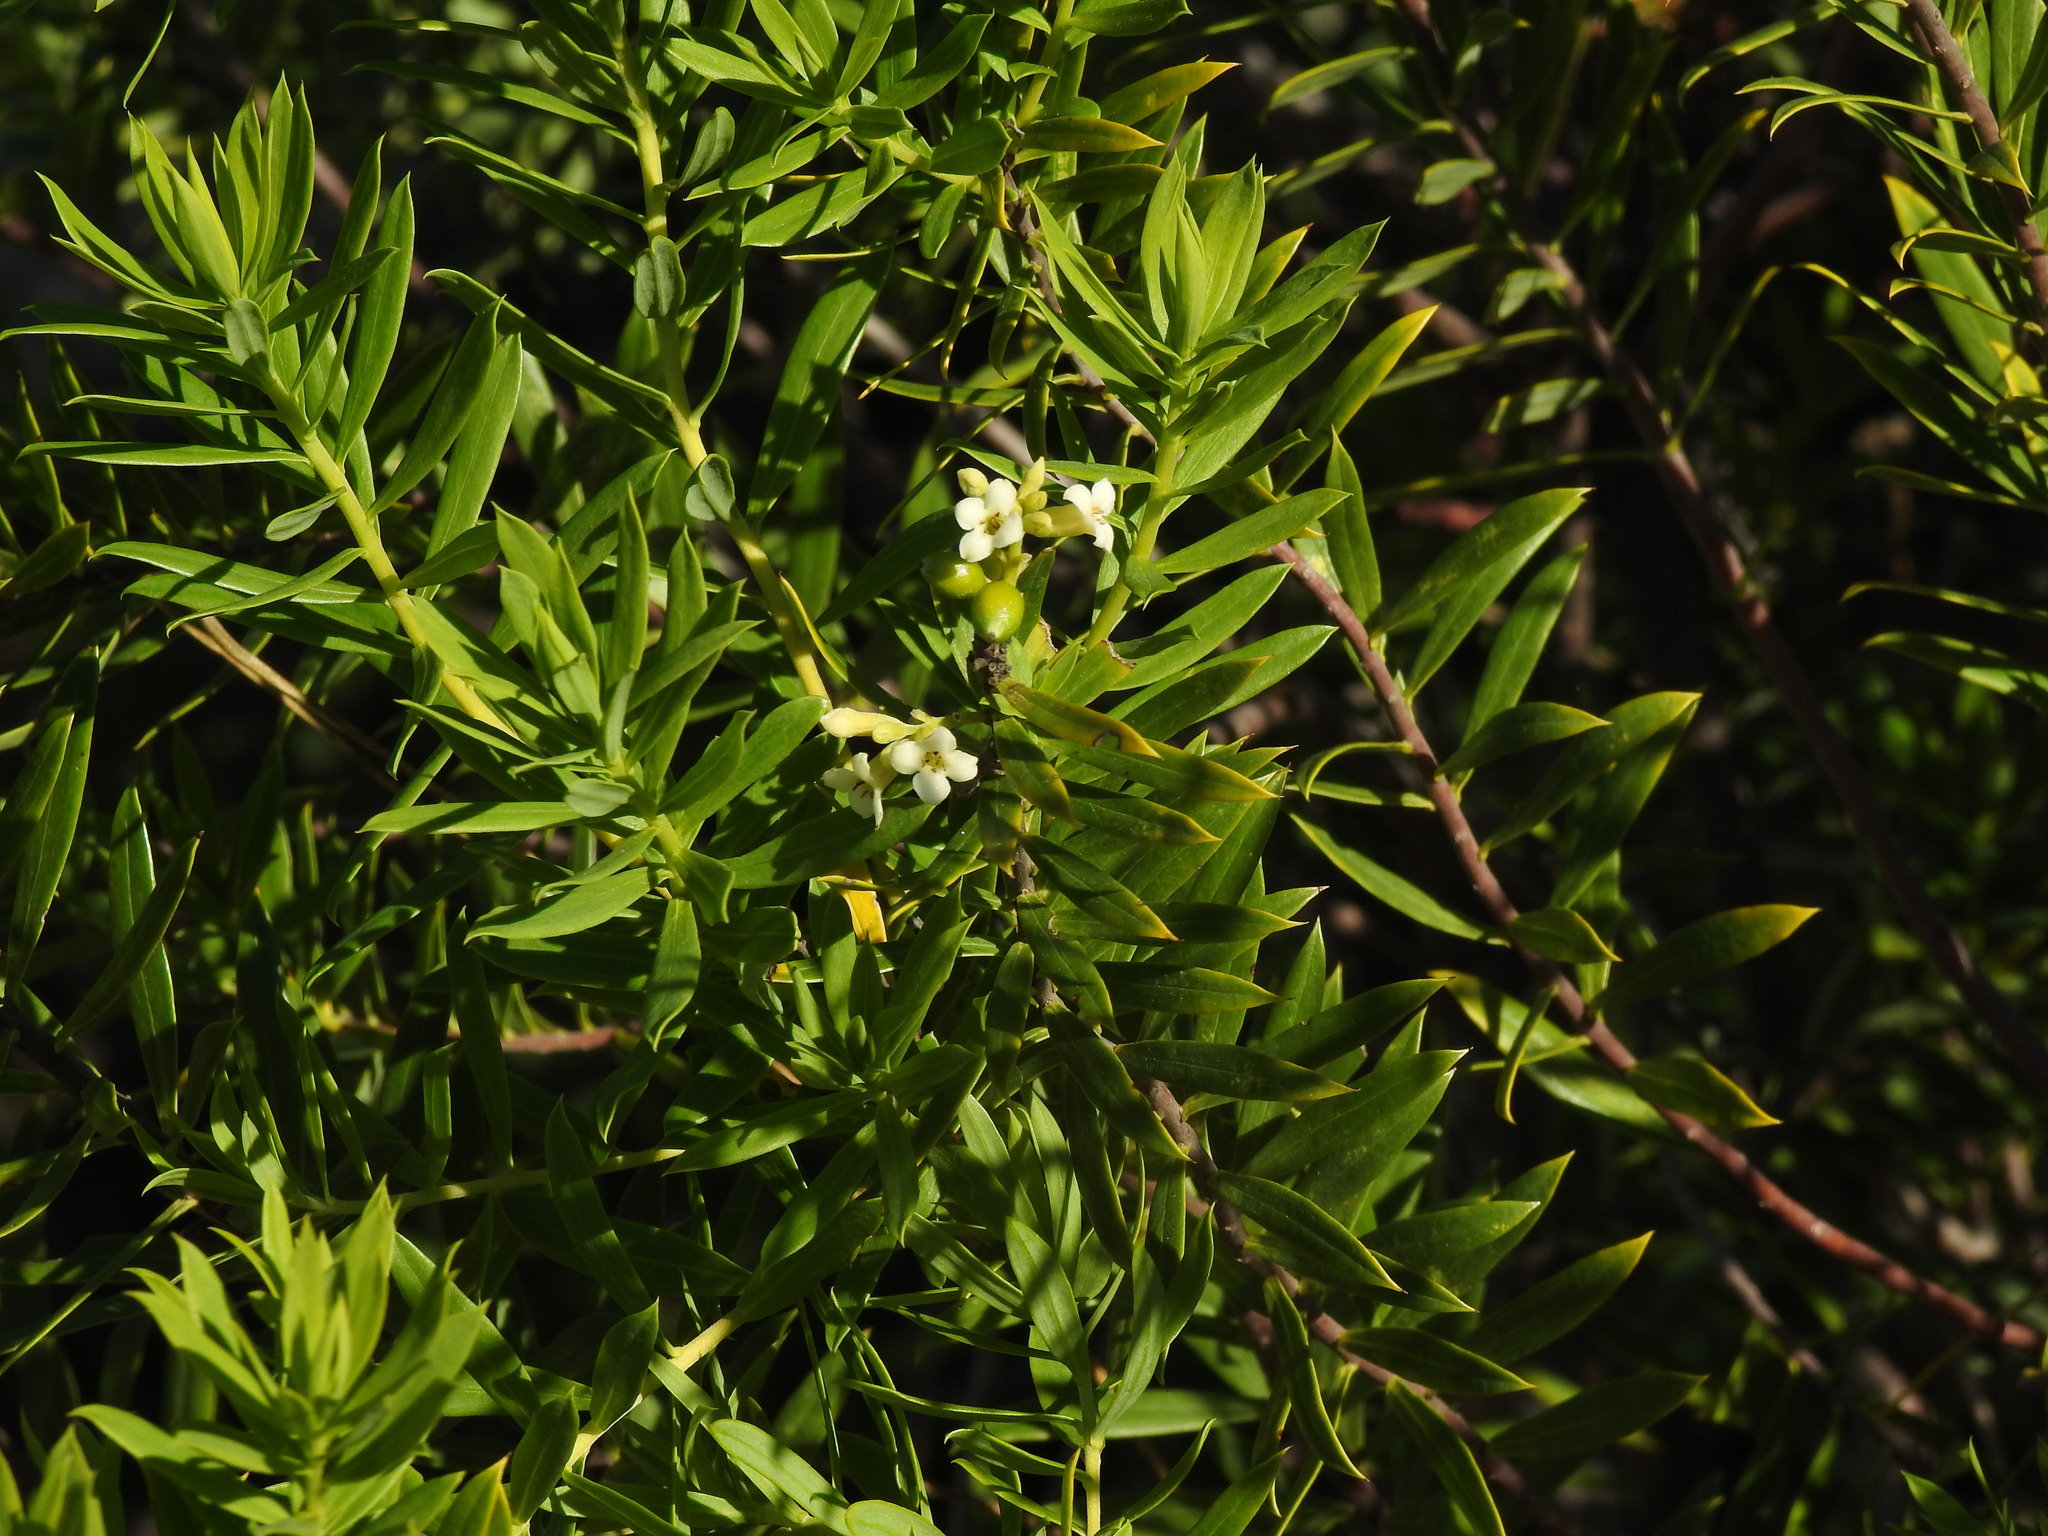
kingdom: Plantae
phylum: Tracheophyta
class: Magnoliopsida
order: Malvales
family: Thymelaeaceae
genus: Daphne
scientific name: Daphne gnidium
